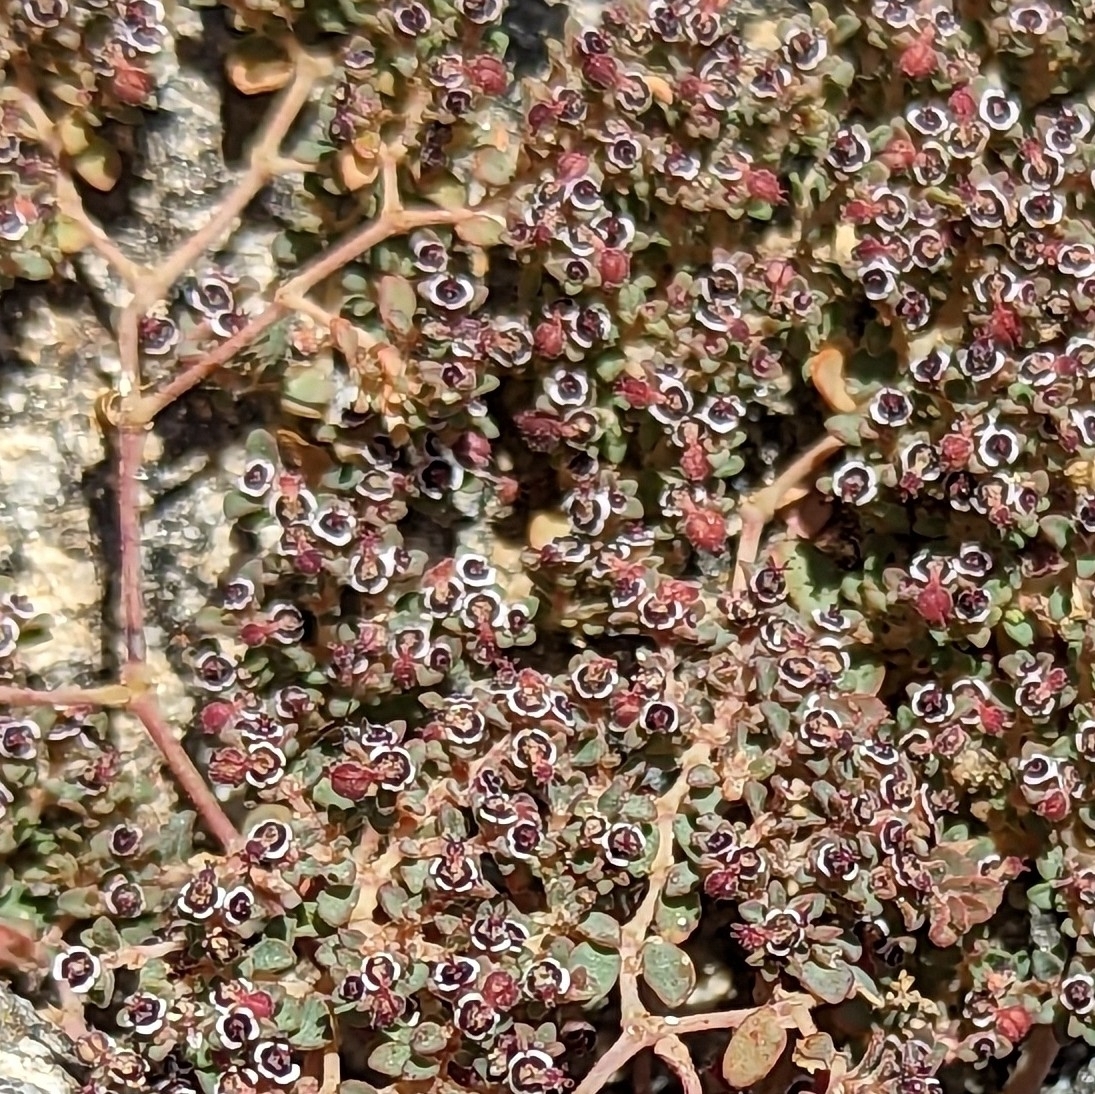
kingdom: Plantae
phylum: Tracheophyta
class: Magnoliopsida
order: Malpighiales
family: Euphorbiaceae
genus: Euphorbia
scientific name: Euphorbia polycarpa
